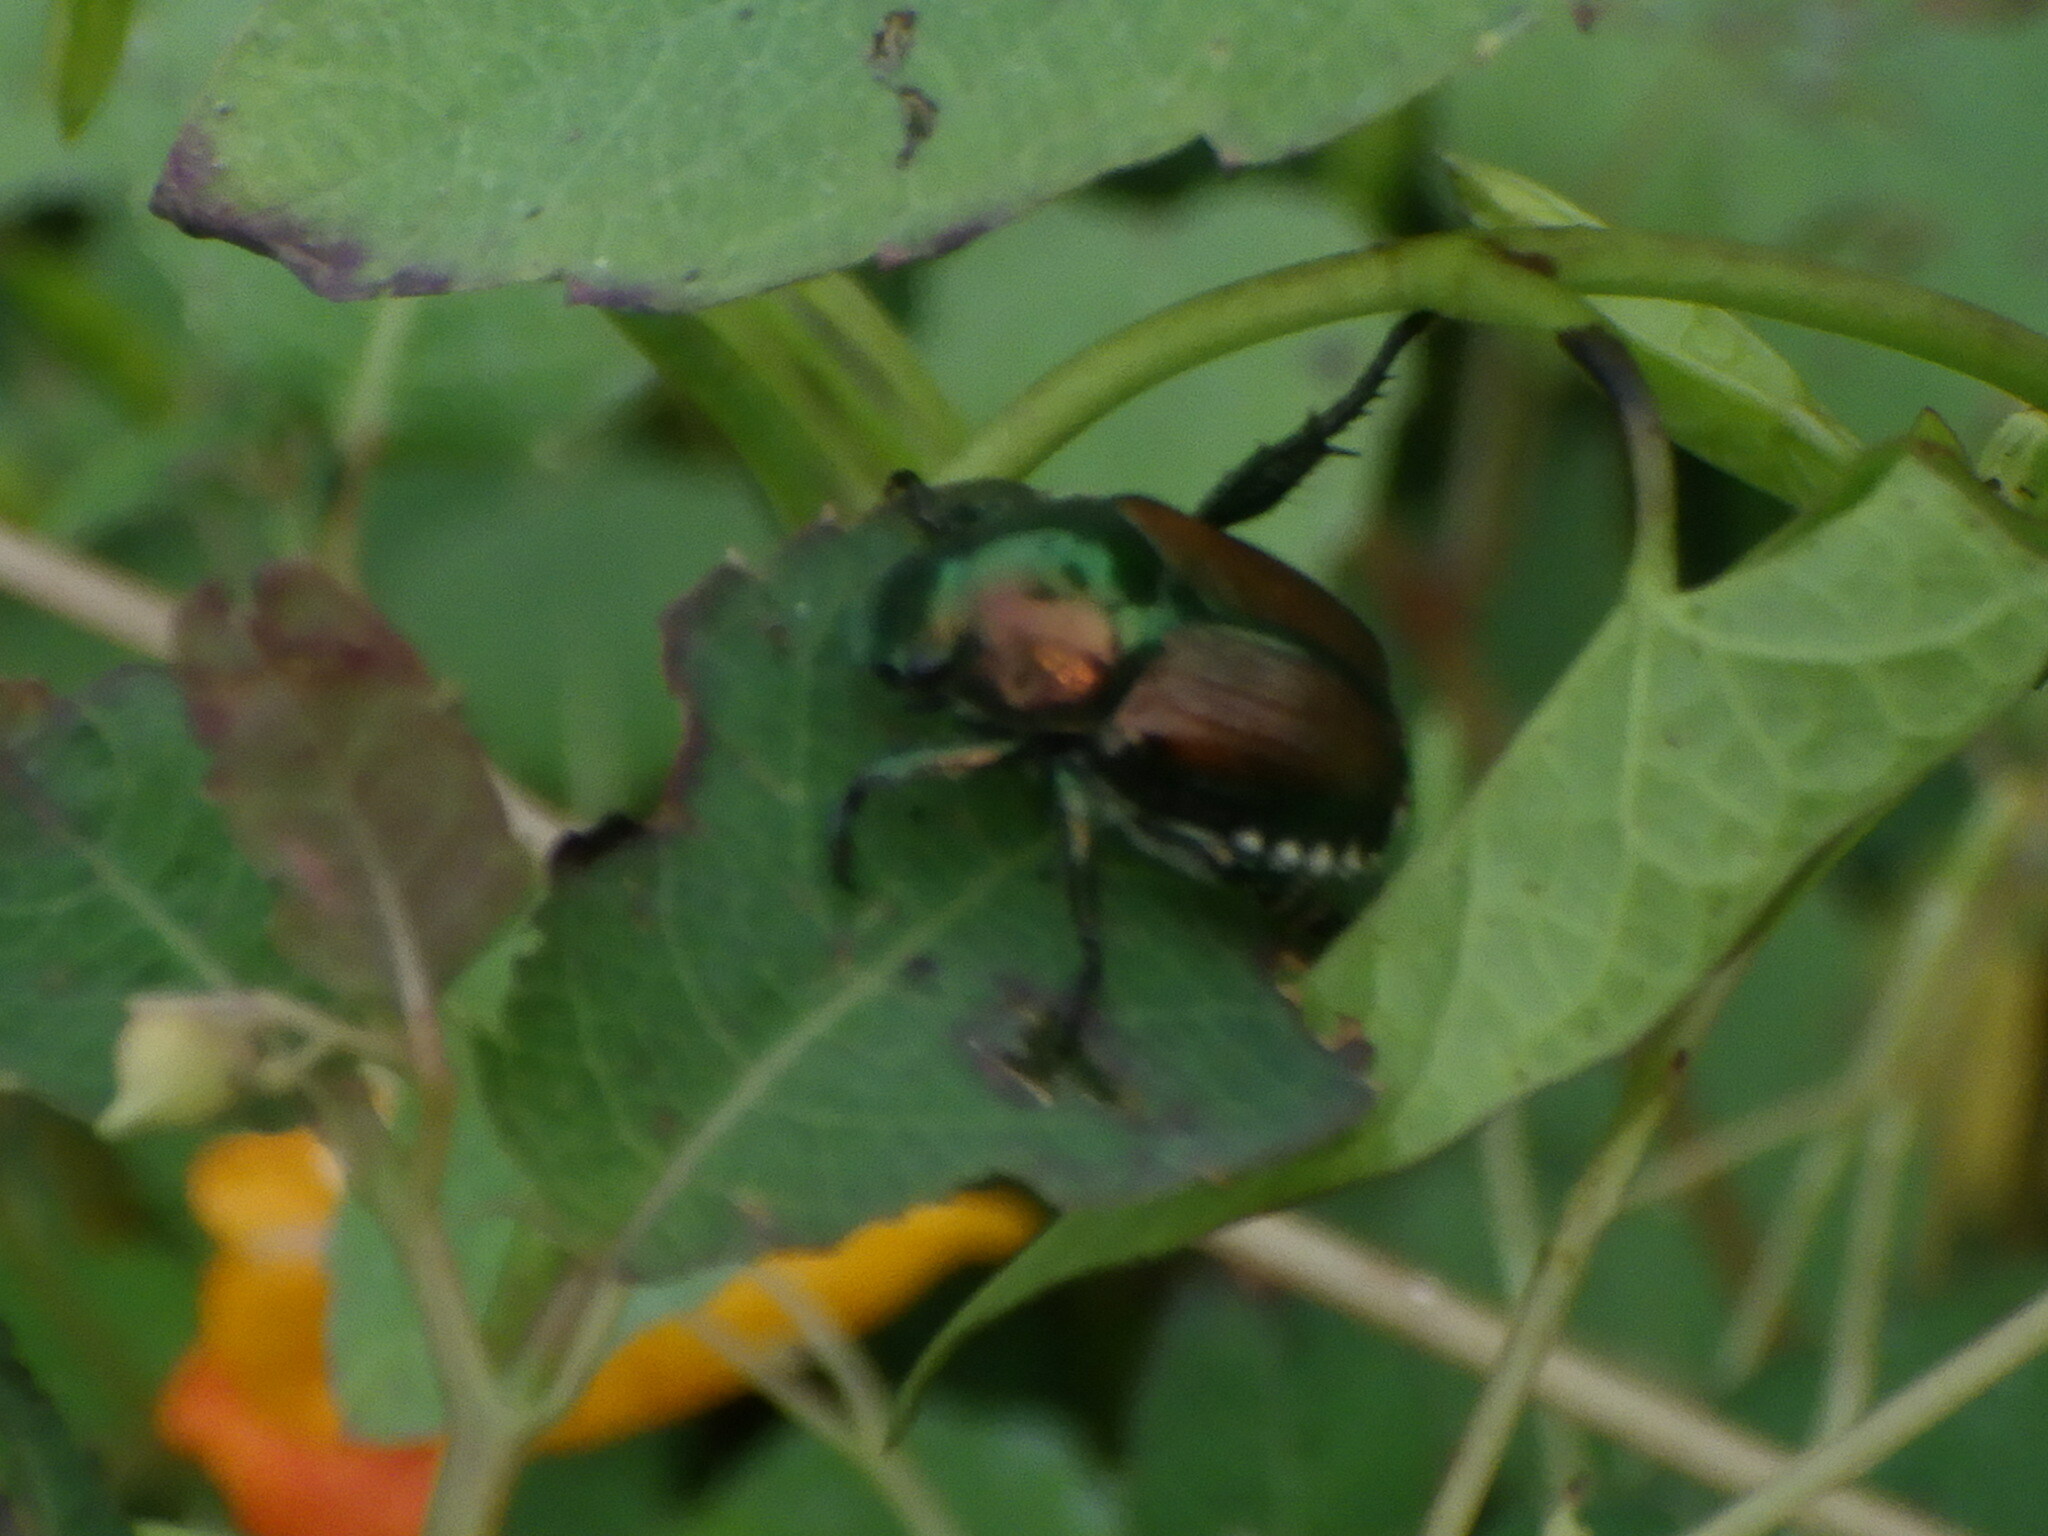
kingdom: Animalia
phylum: Arthropoda
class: Insecta
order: Coleoptera
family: Scarabaeidae
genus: Popillia
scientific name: Popillia japonica
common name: Japanese beetle
